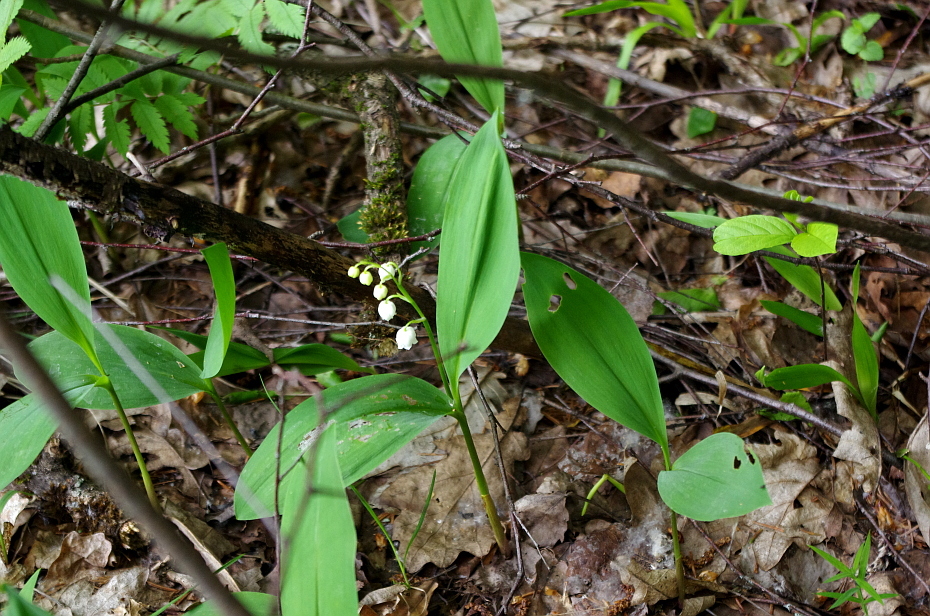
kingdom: Plantae
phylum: Tracheophyta
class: Liliopsida
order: Asparagales
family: Asparagaceae
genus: Convallaria
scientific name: Convallaria majalis
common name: Lily-of-the-valley
